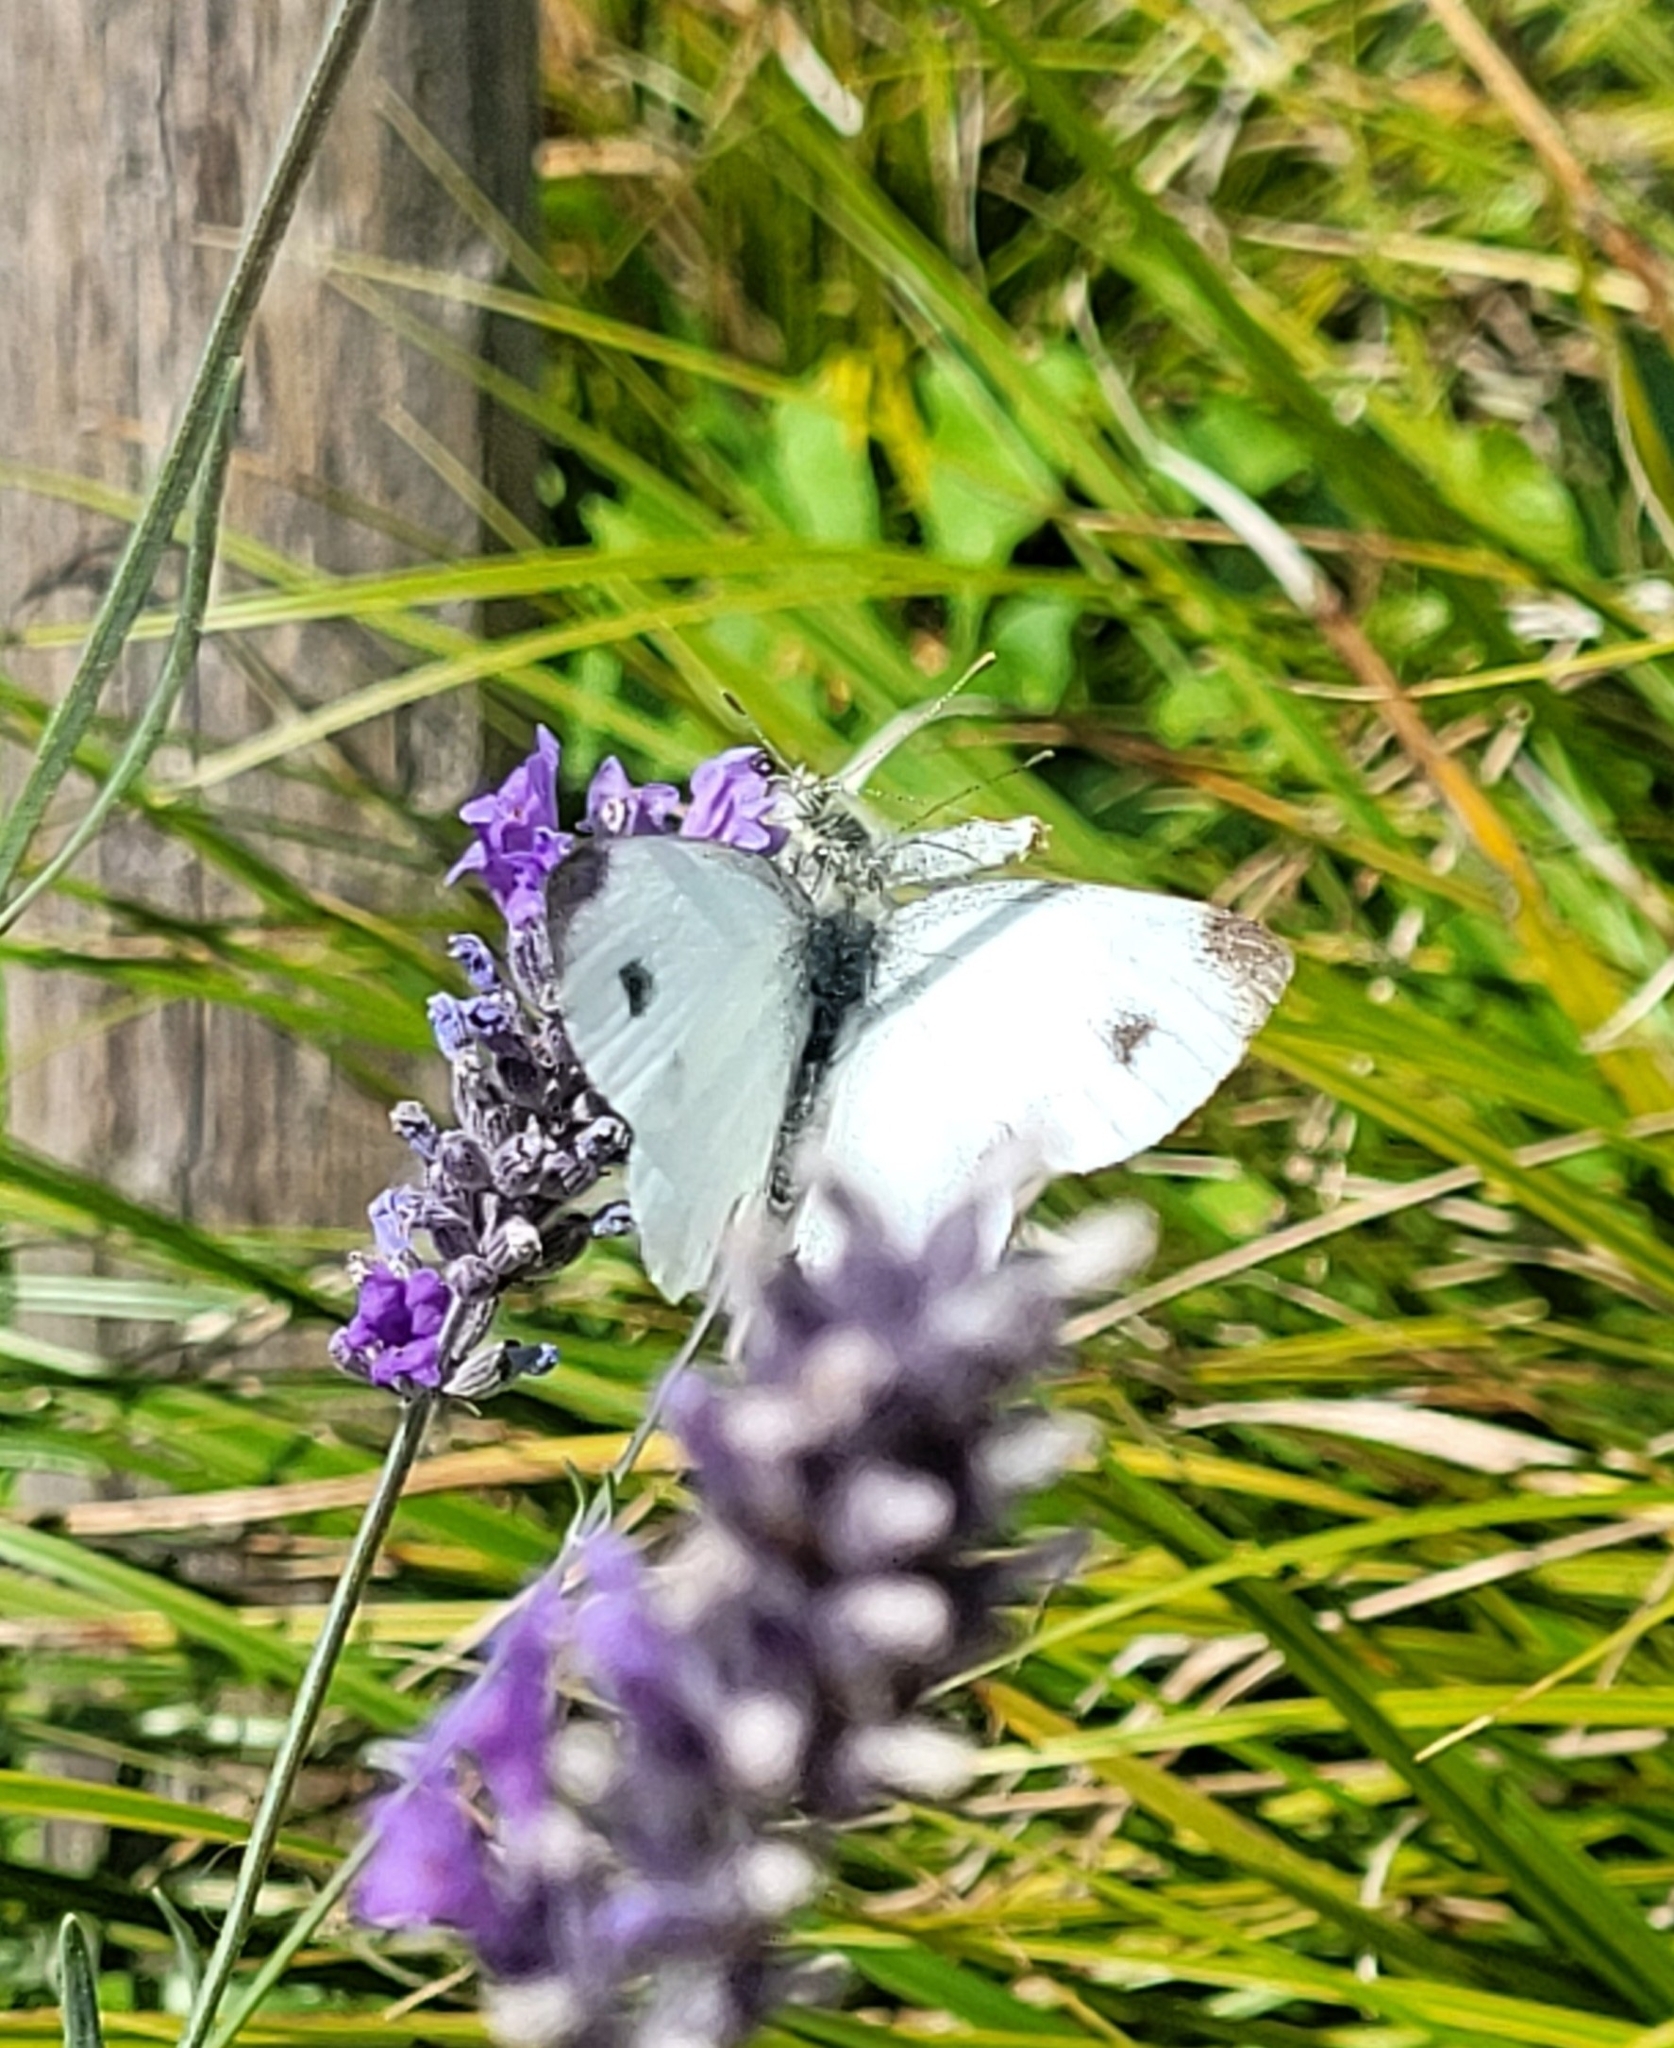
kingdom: Animalia
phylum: Arthropoda
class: Insecta
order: Lepidoptera
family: Pieridae
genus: Pieris
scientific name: Pieris mannii
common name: Southern small white
